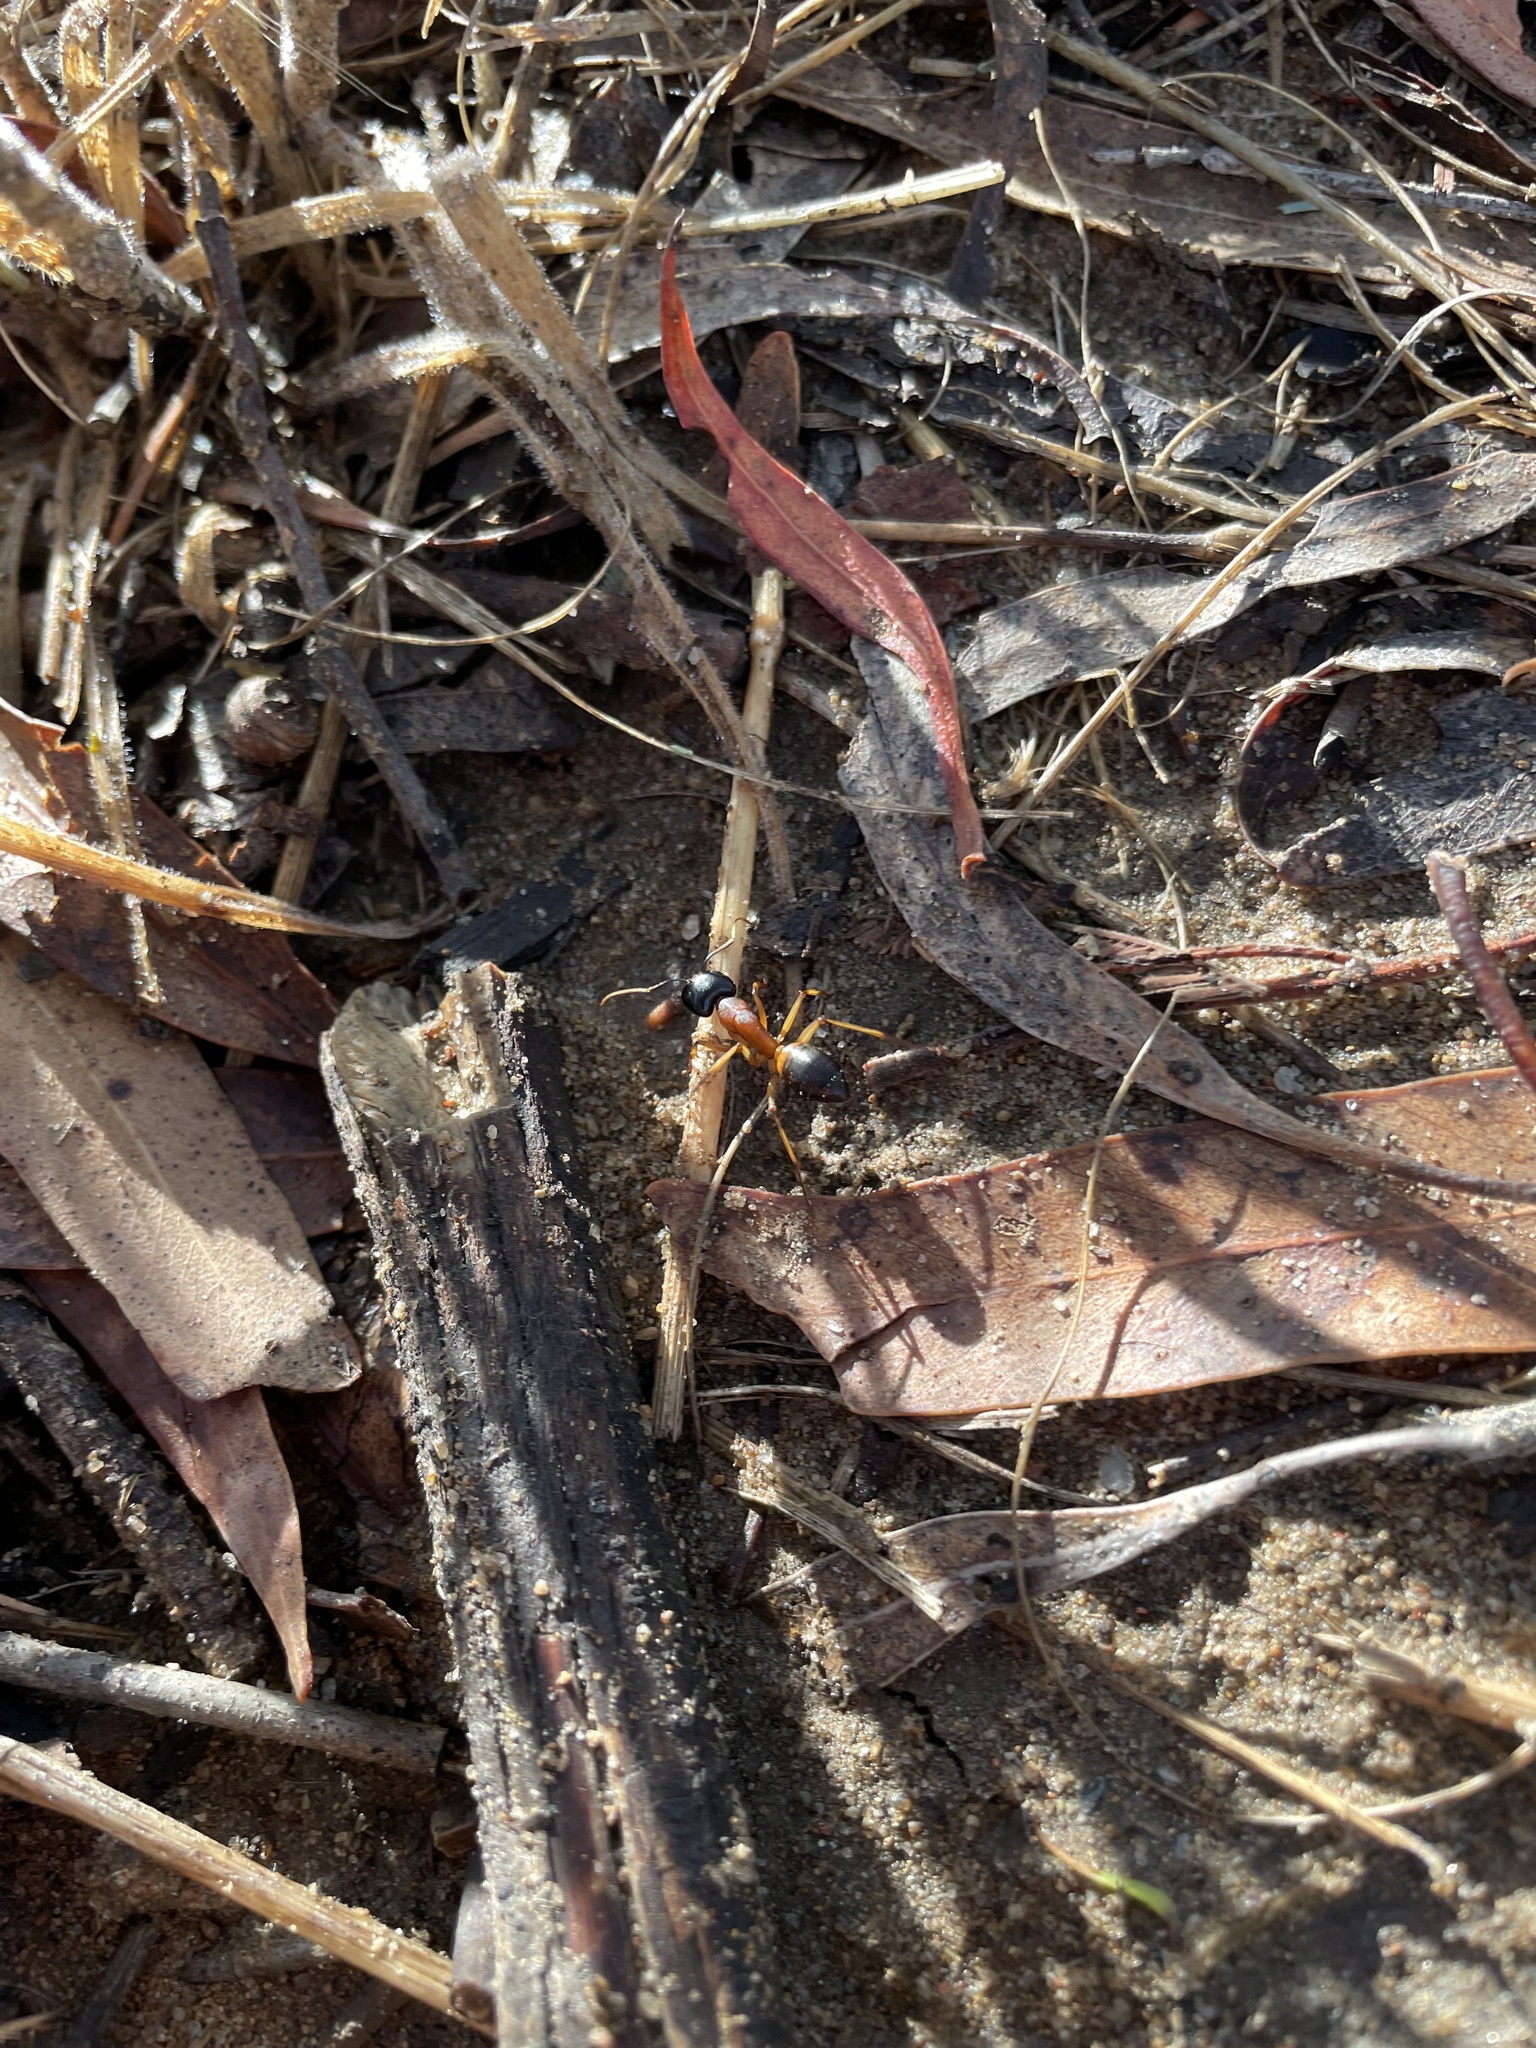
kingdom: Animalia
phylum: Arthropoda
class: Insecta
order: Hymenoptera
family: Formicidae
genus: Camponotus
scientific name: Camponotus consobrinus
